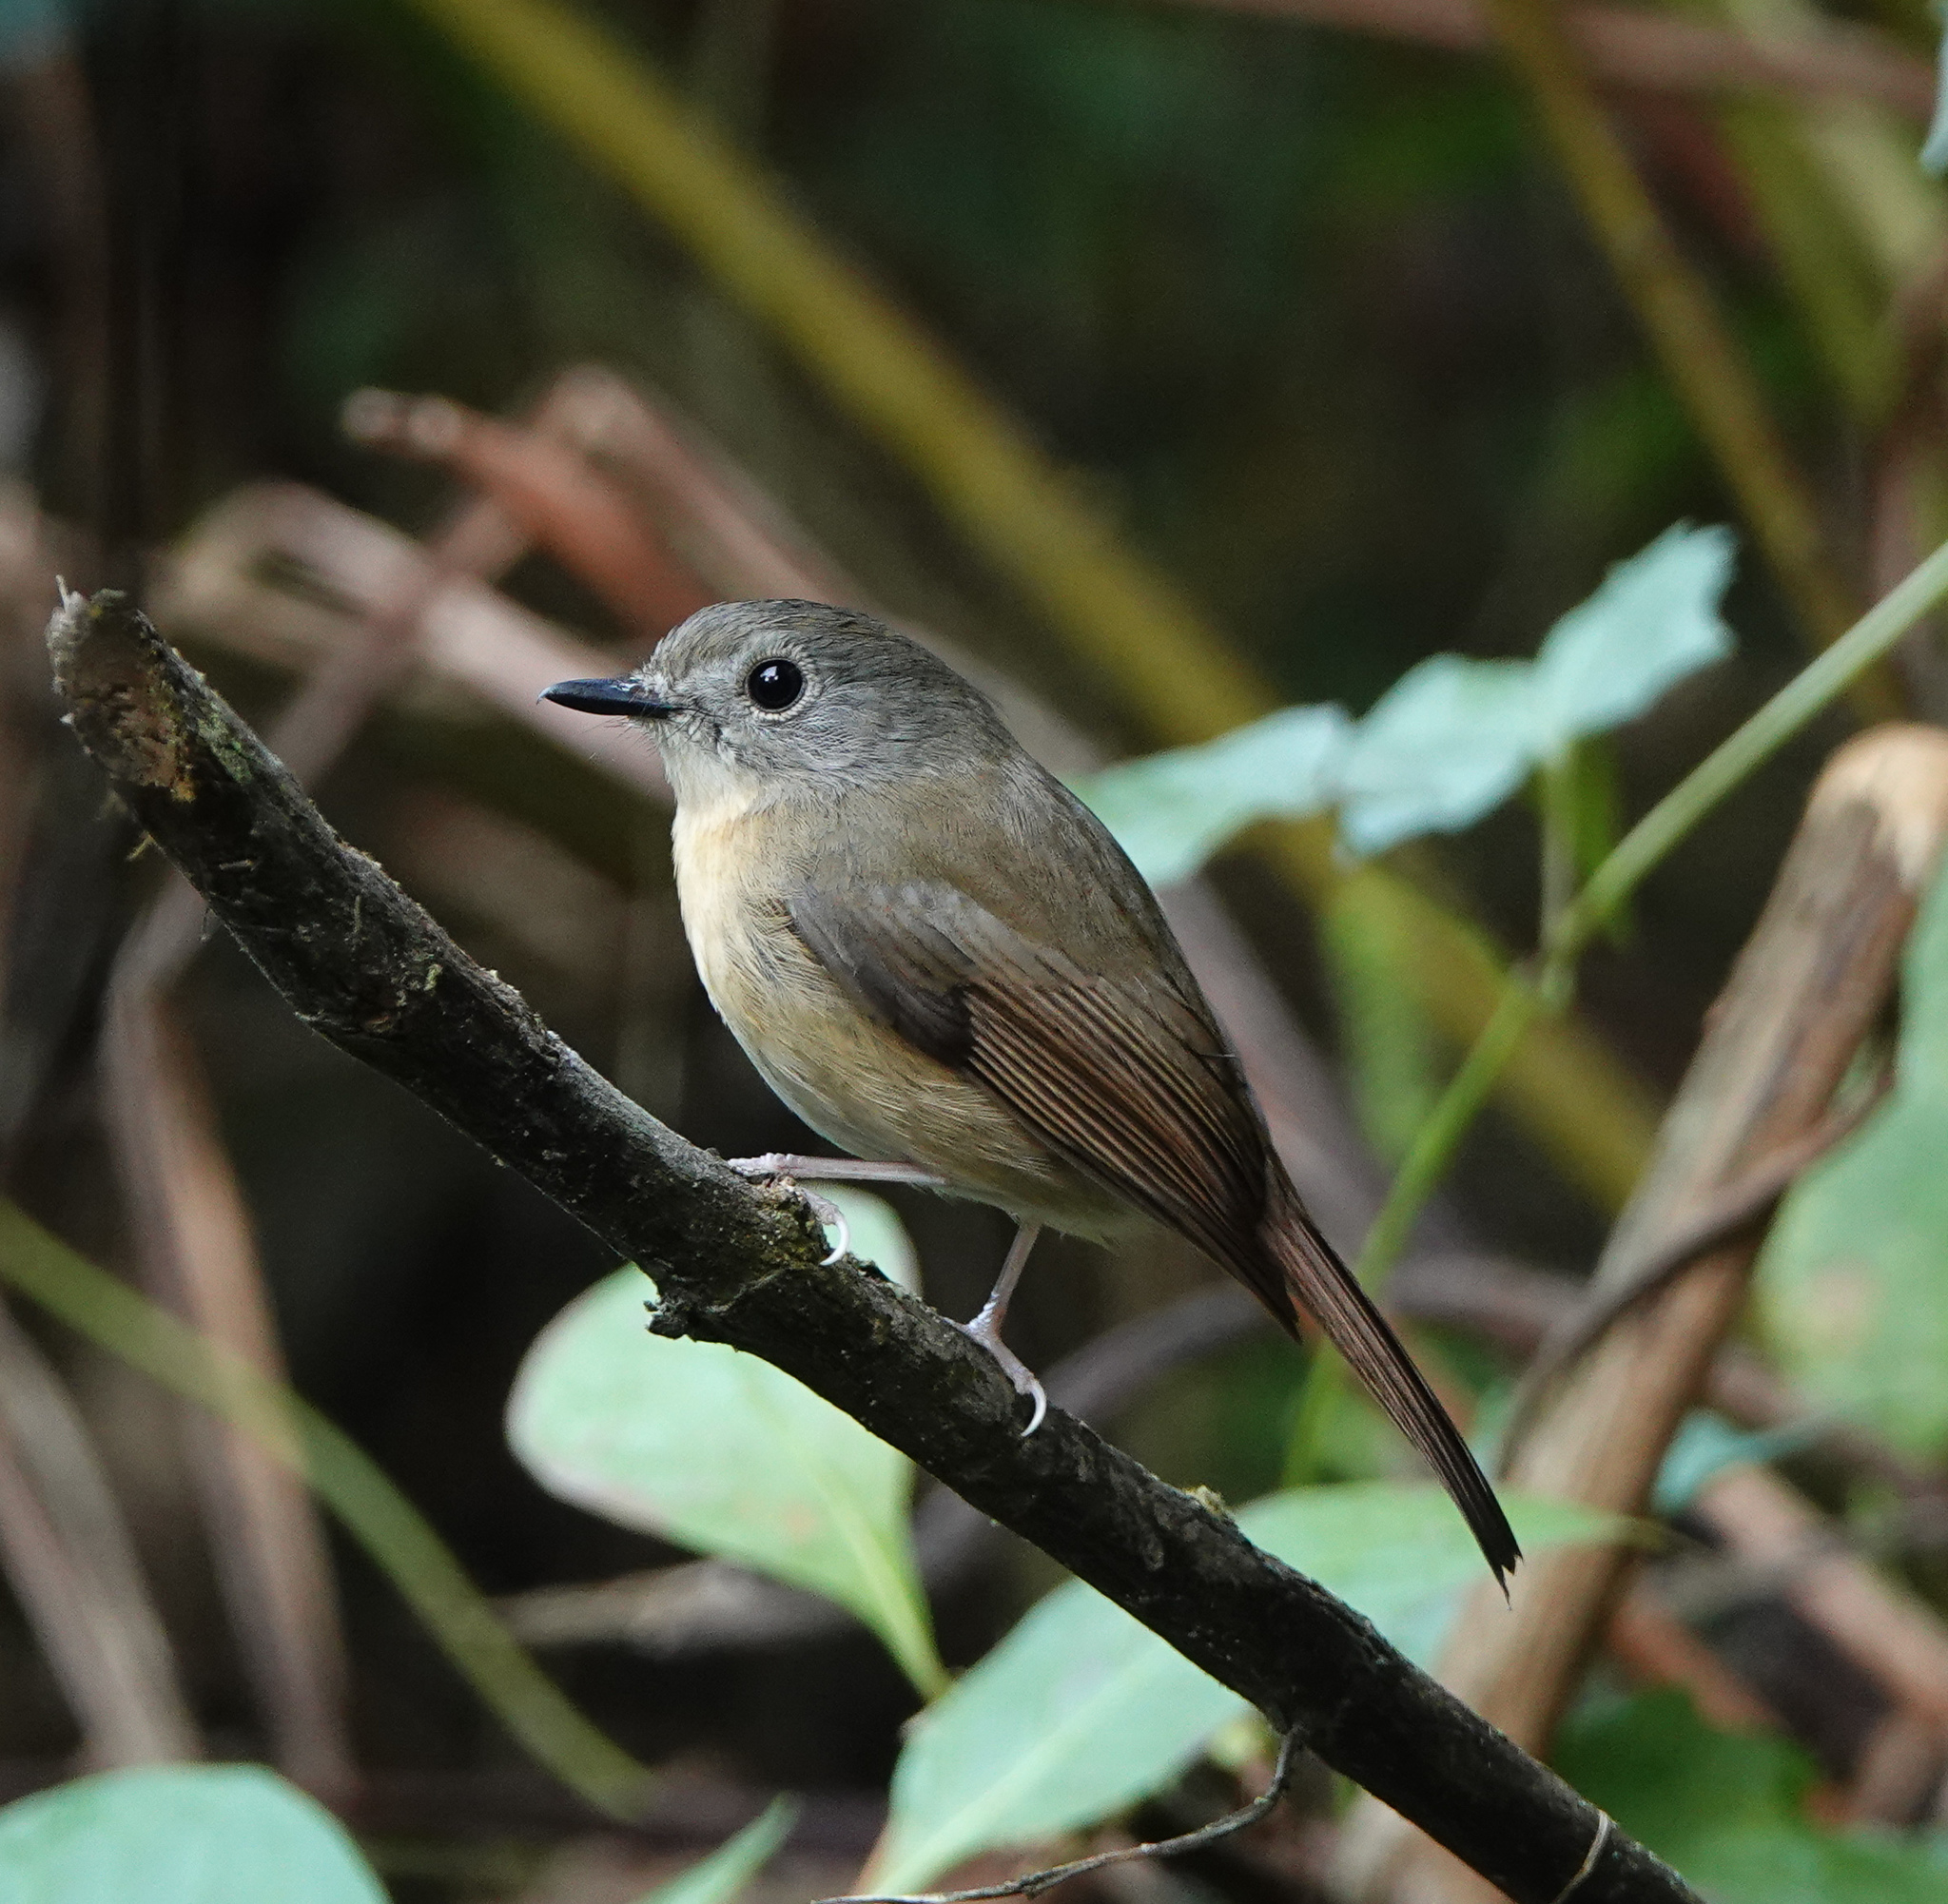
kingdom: Animalia
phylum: Chordata
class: Aves
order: Passeriformes
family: Muscicapidae
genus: Cyornis
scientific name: Cyornis poliogenys
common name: Pale-chinned blue flycatcher
